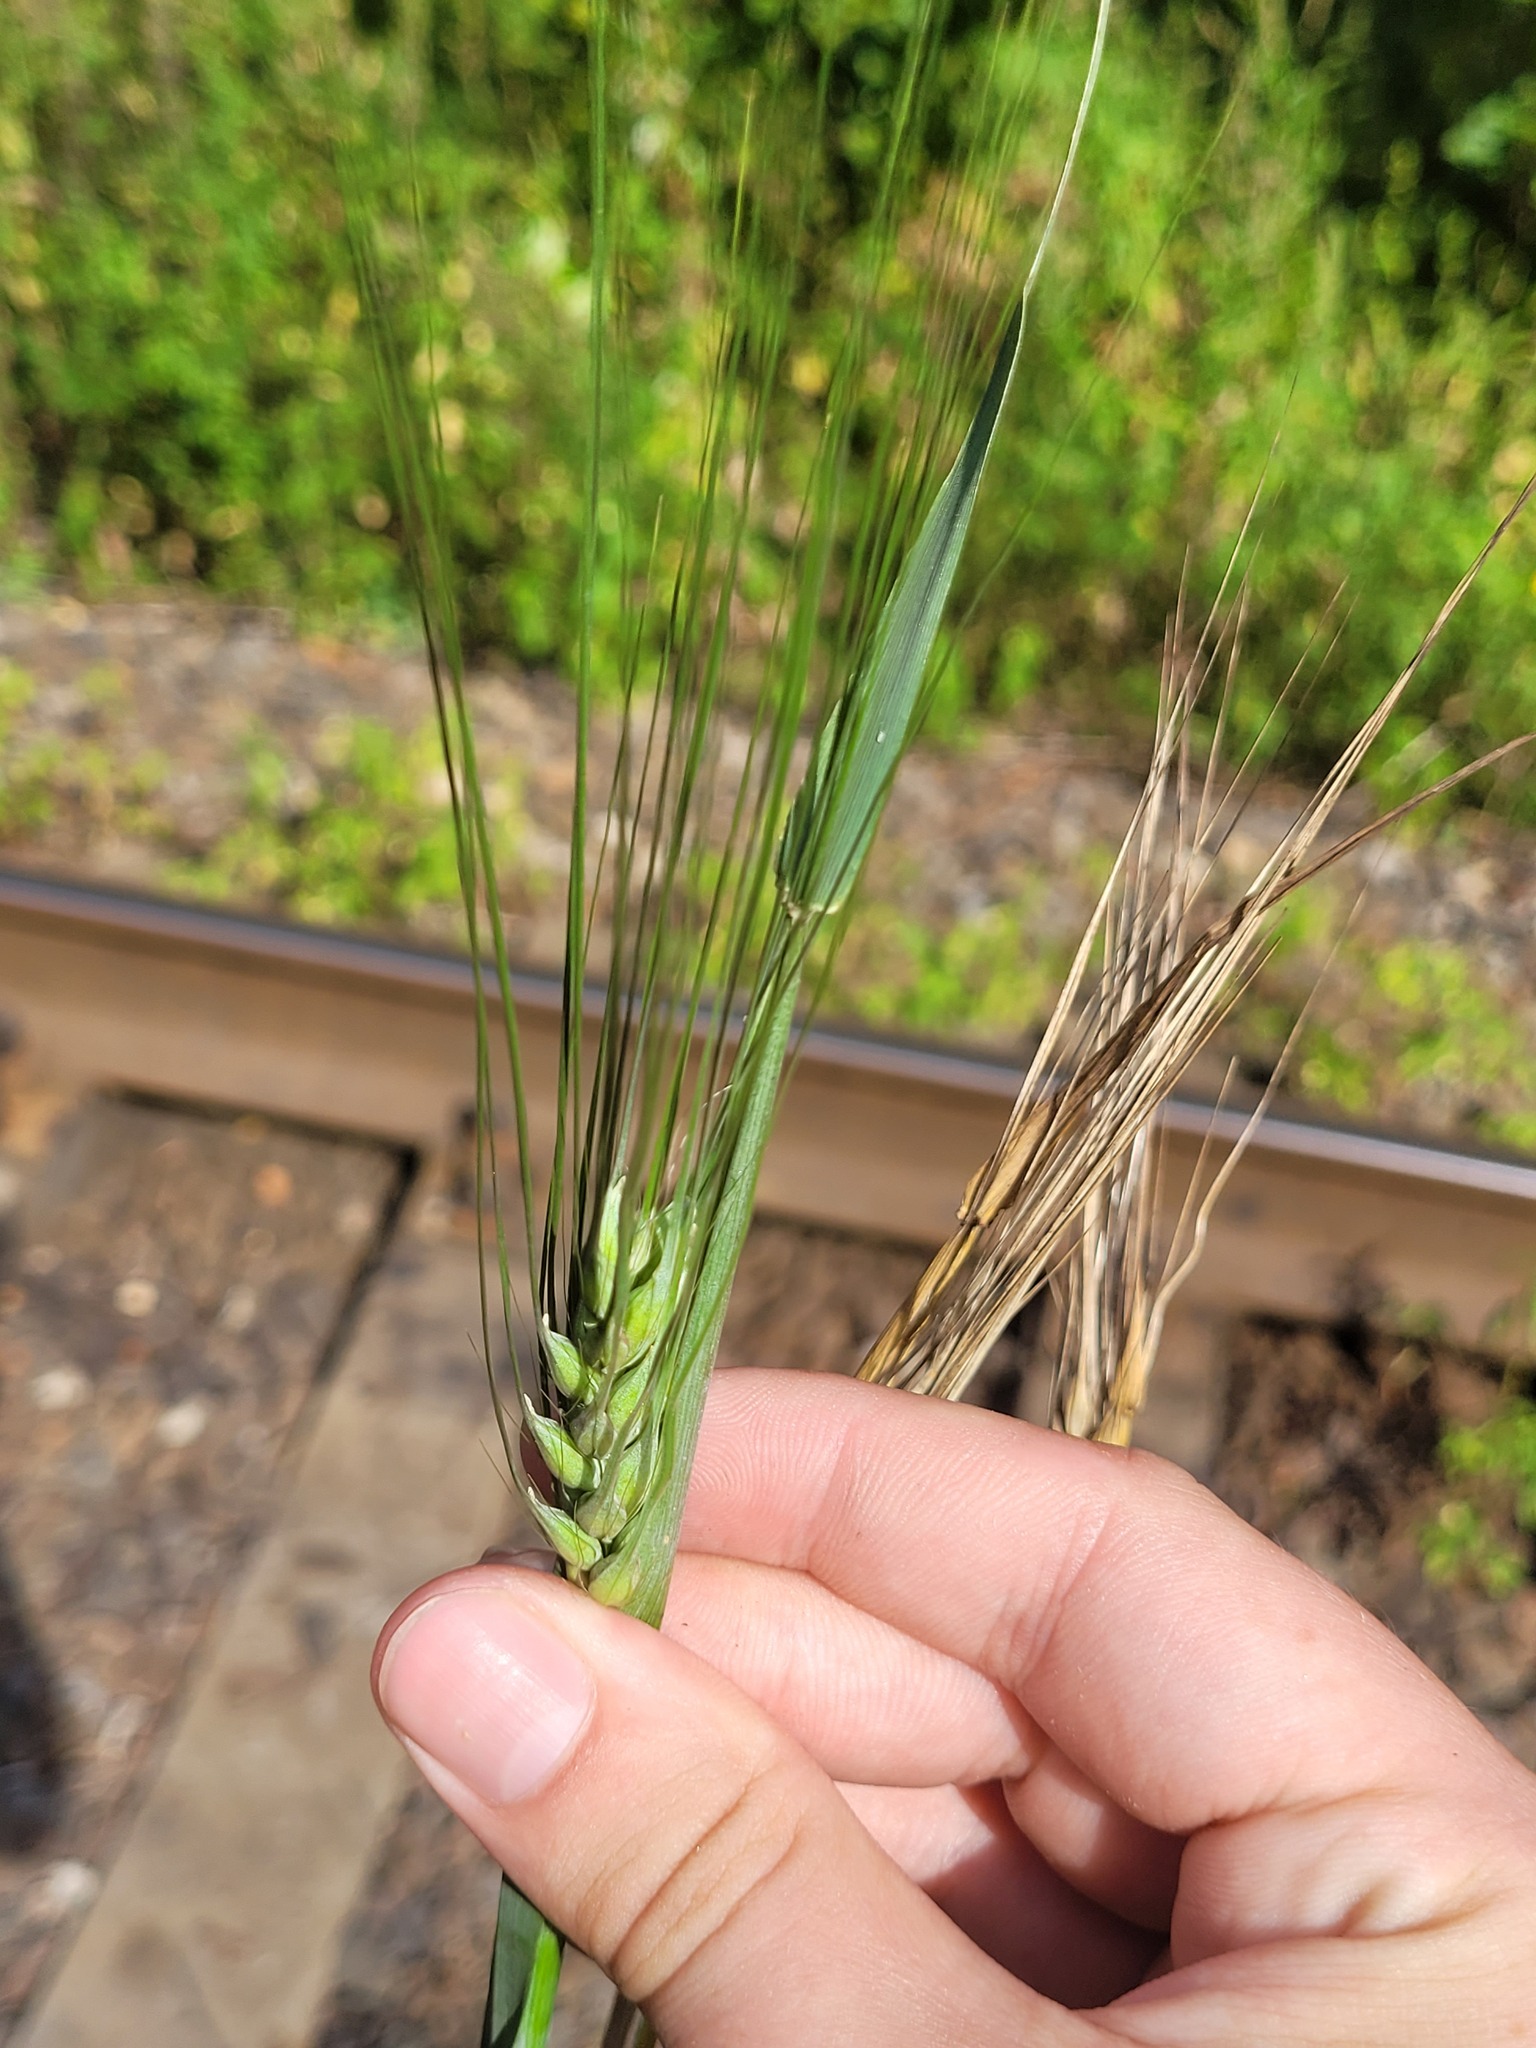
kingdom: Plantae
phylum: Tracheophyta
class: Liliopsida
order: Poales
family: Poaceae
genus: Hordeum
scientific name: Hordeum vulgare
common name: Common barley
